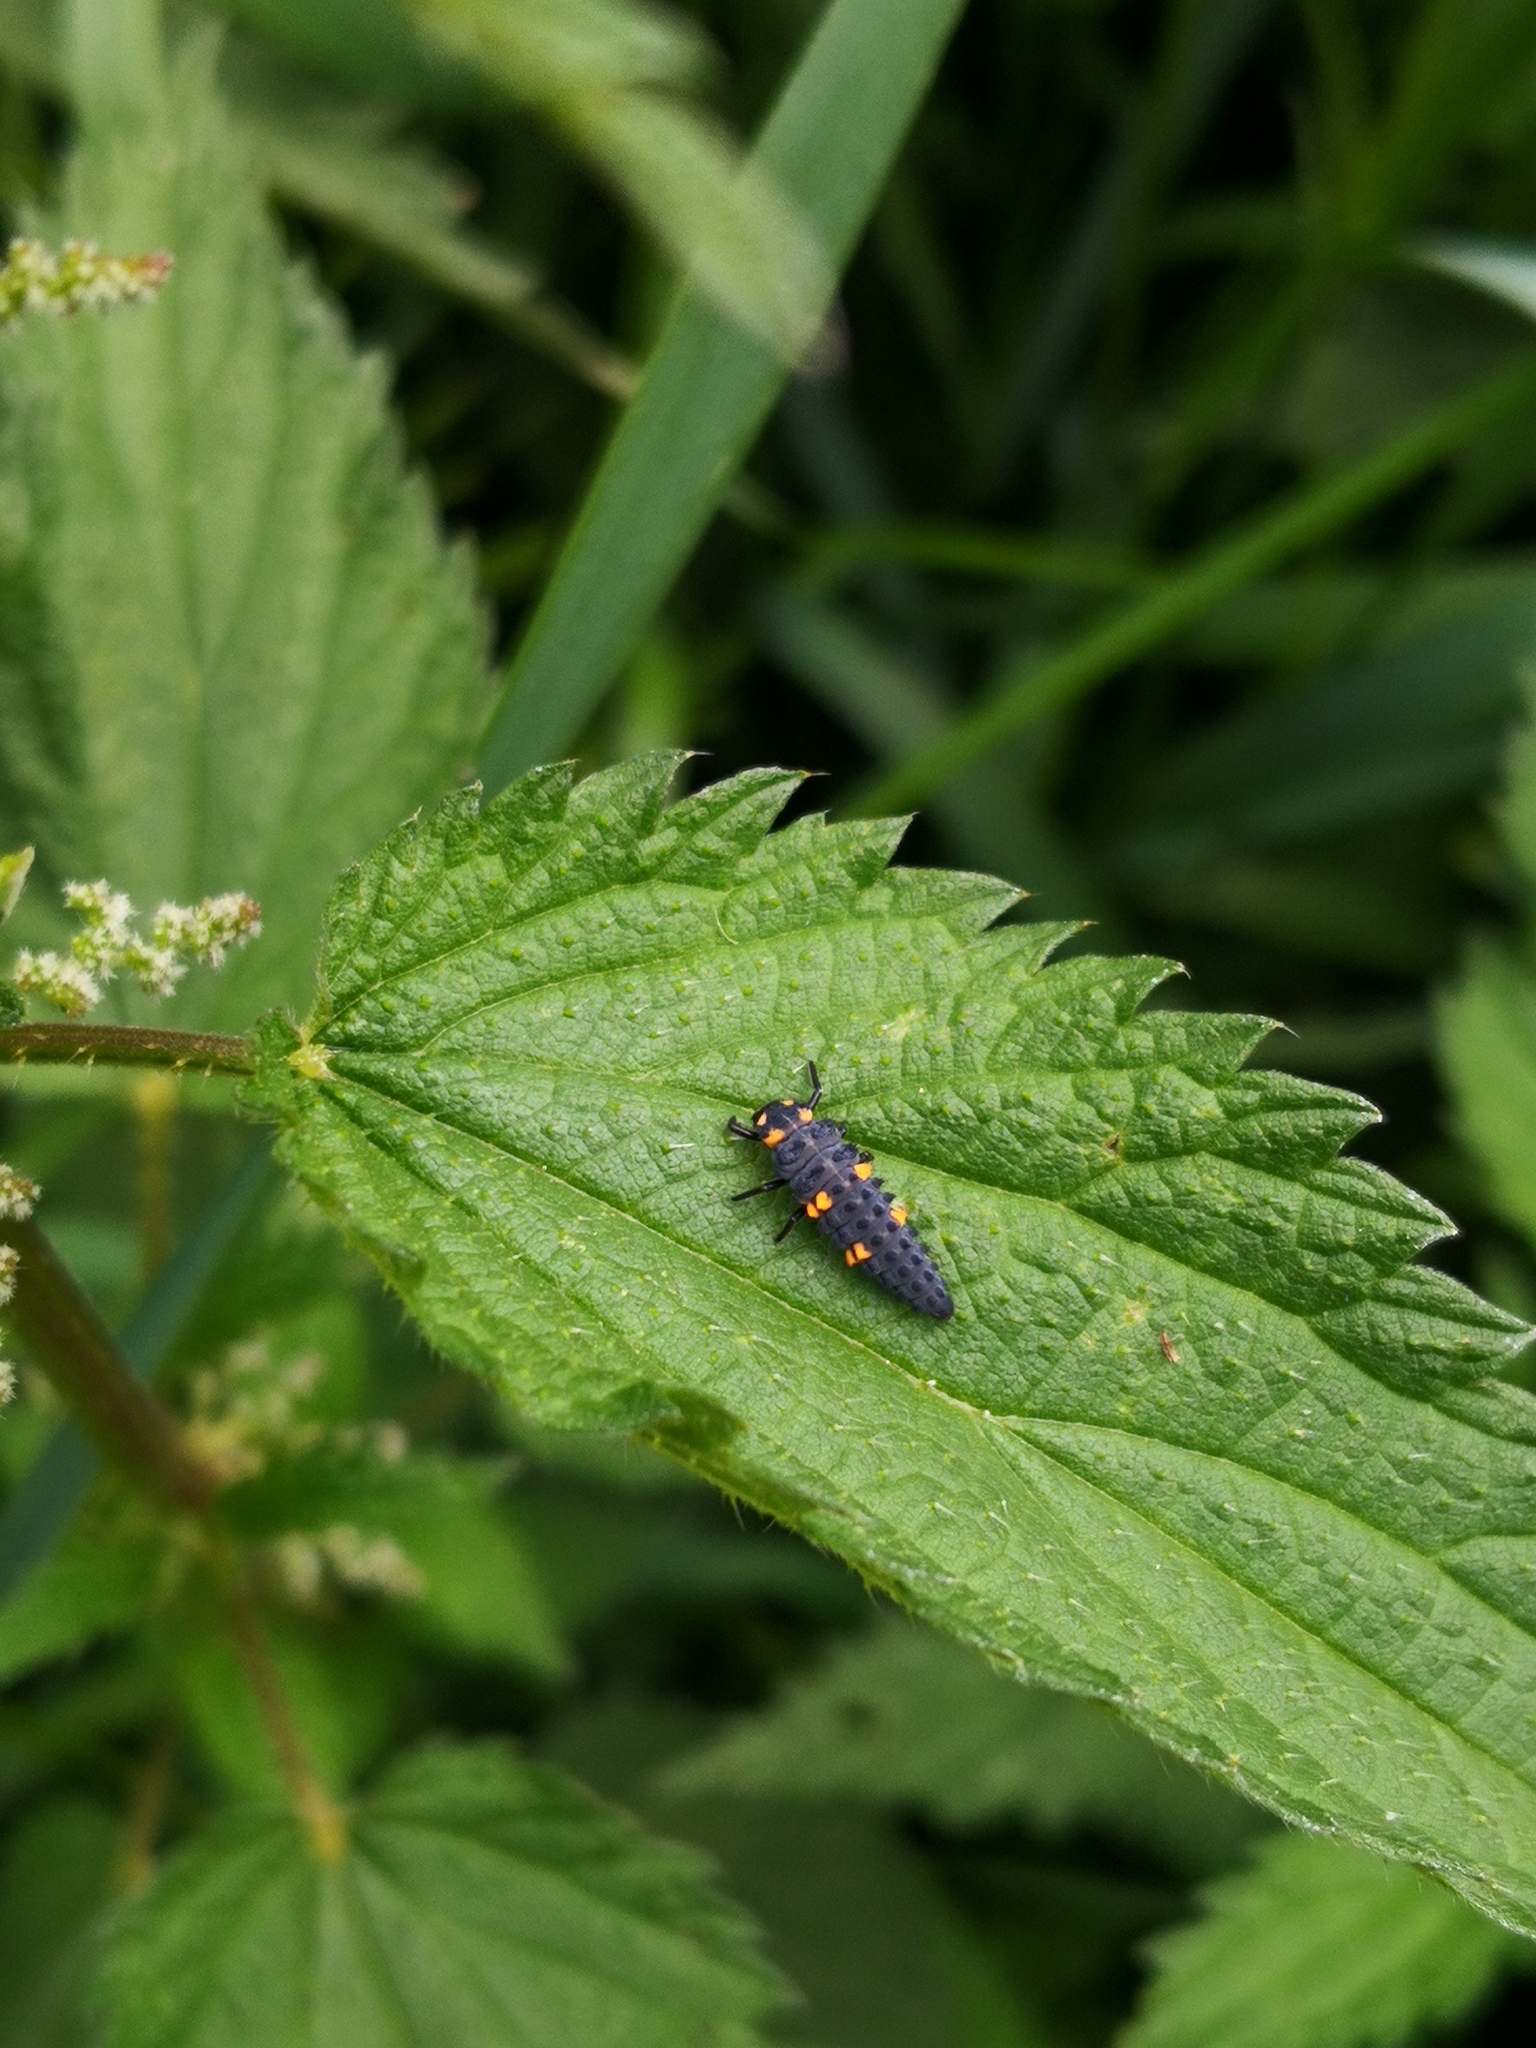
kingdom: Animalia
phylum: Arthropoda
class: Insecta
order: Coleoptera
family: Coccinellidae
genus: Coccinella
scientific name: Coccinella septempunctata
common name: Sevenspotted lady beetle
